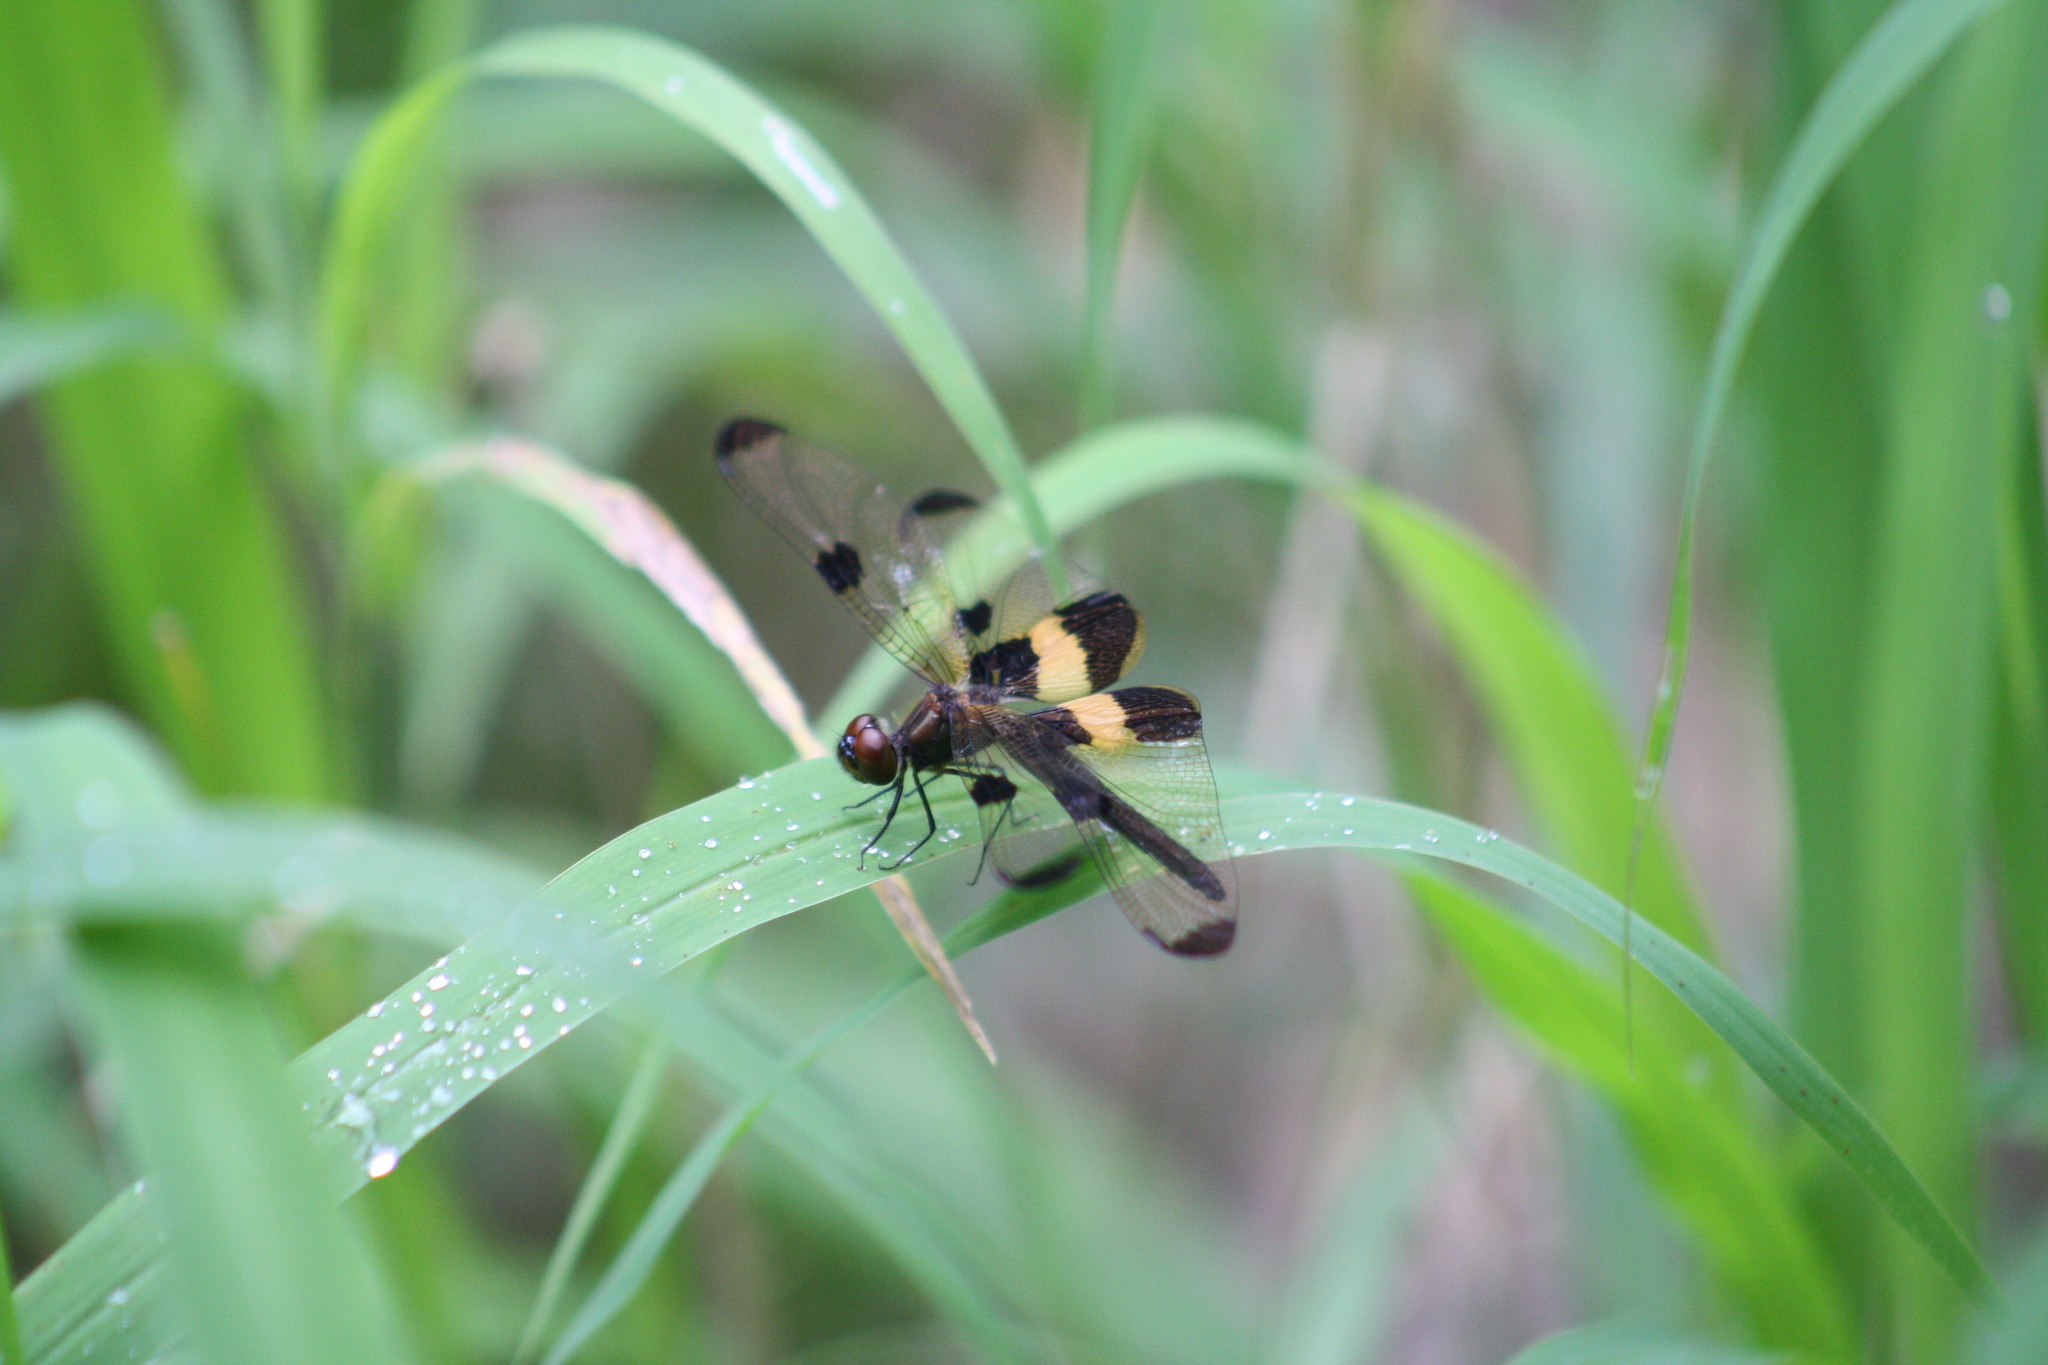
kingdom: Animalia
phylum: Arthropoda
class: Insecta
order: Odonata
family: Libellulidae
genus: Rhyothemis
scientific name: Rhyothemis phyllis
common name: Yellow-barred flutterer
